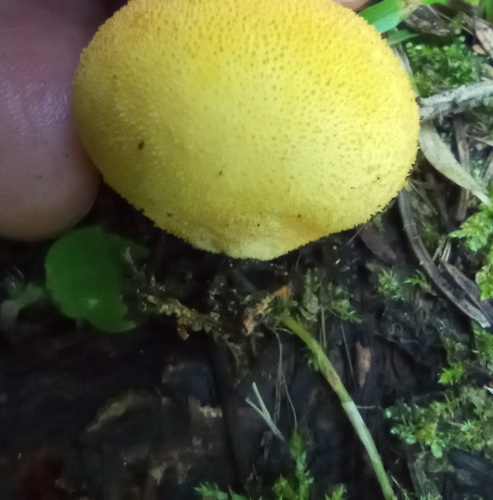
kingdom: Fungi
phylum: Basidiomycota
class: Agaricomycetes
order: Agaricales
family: Lycoperdaceae
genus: Bovista
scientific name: Bovista aestivalis
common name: Deceiving bovist
